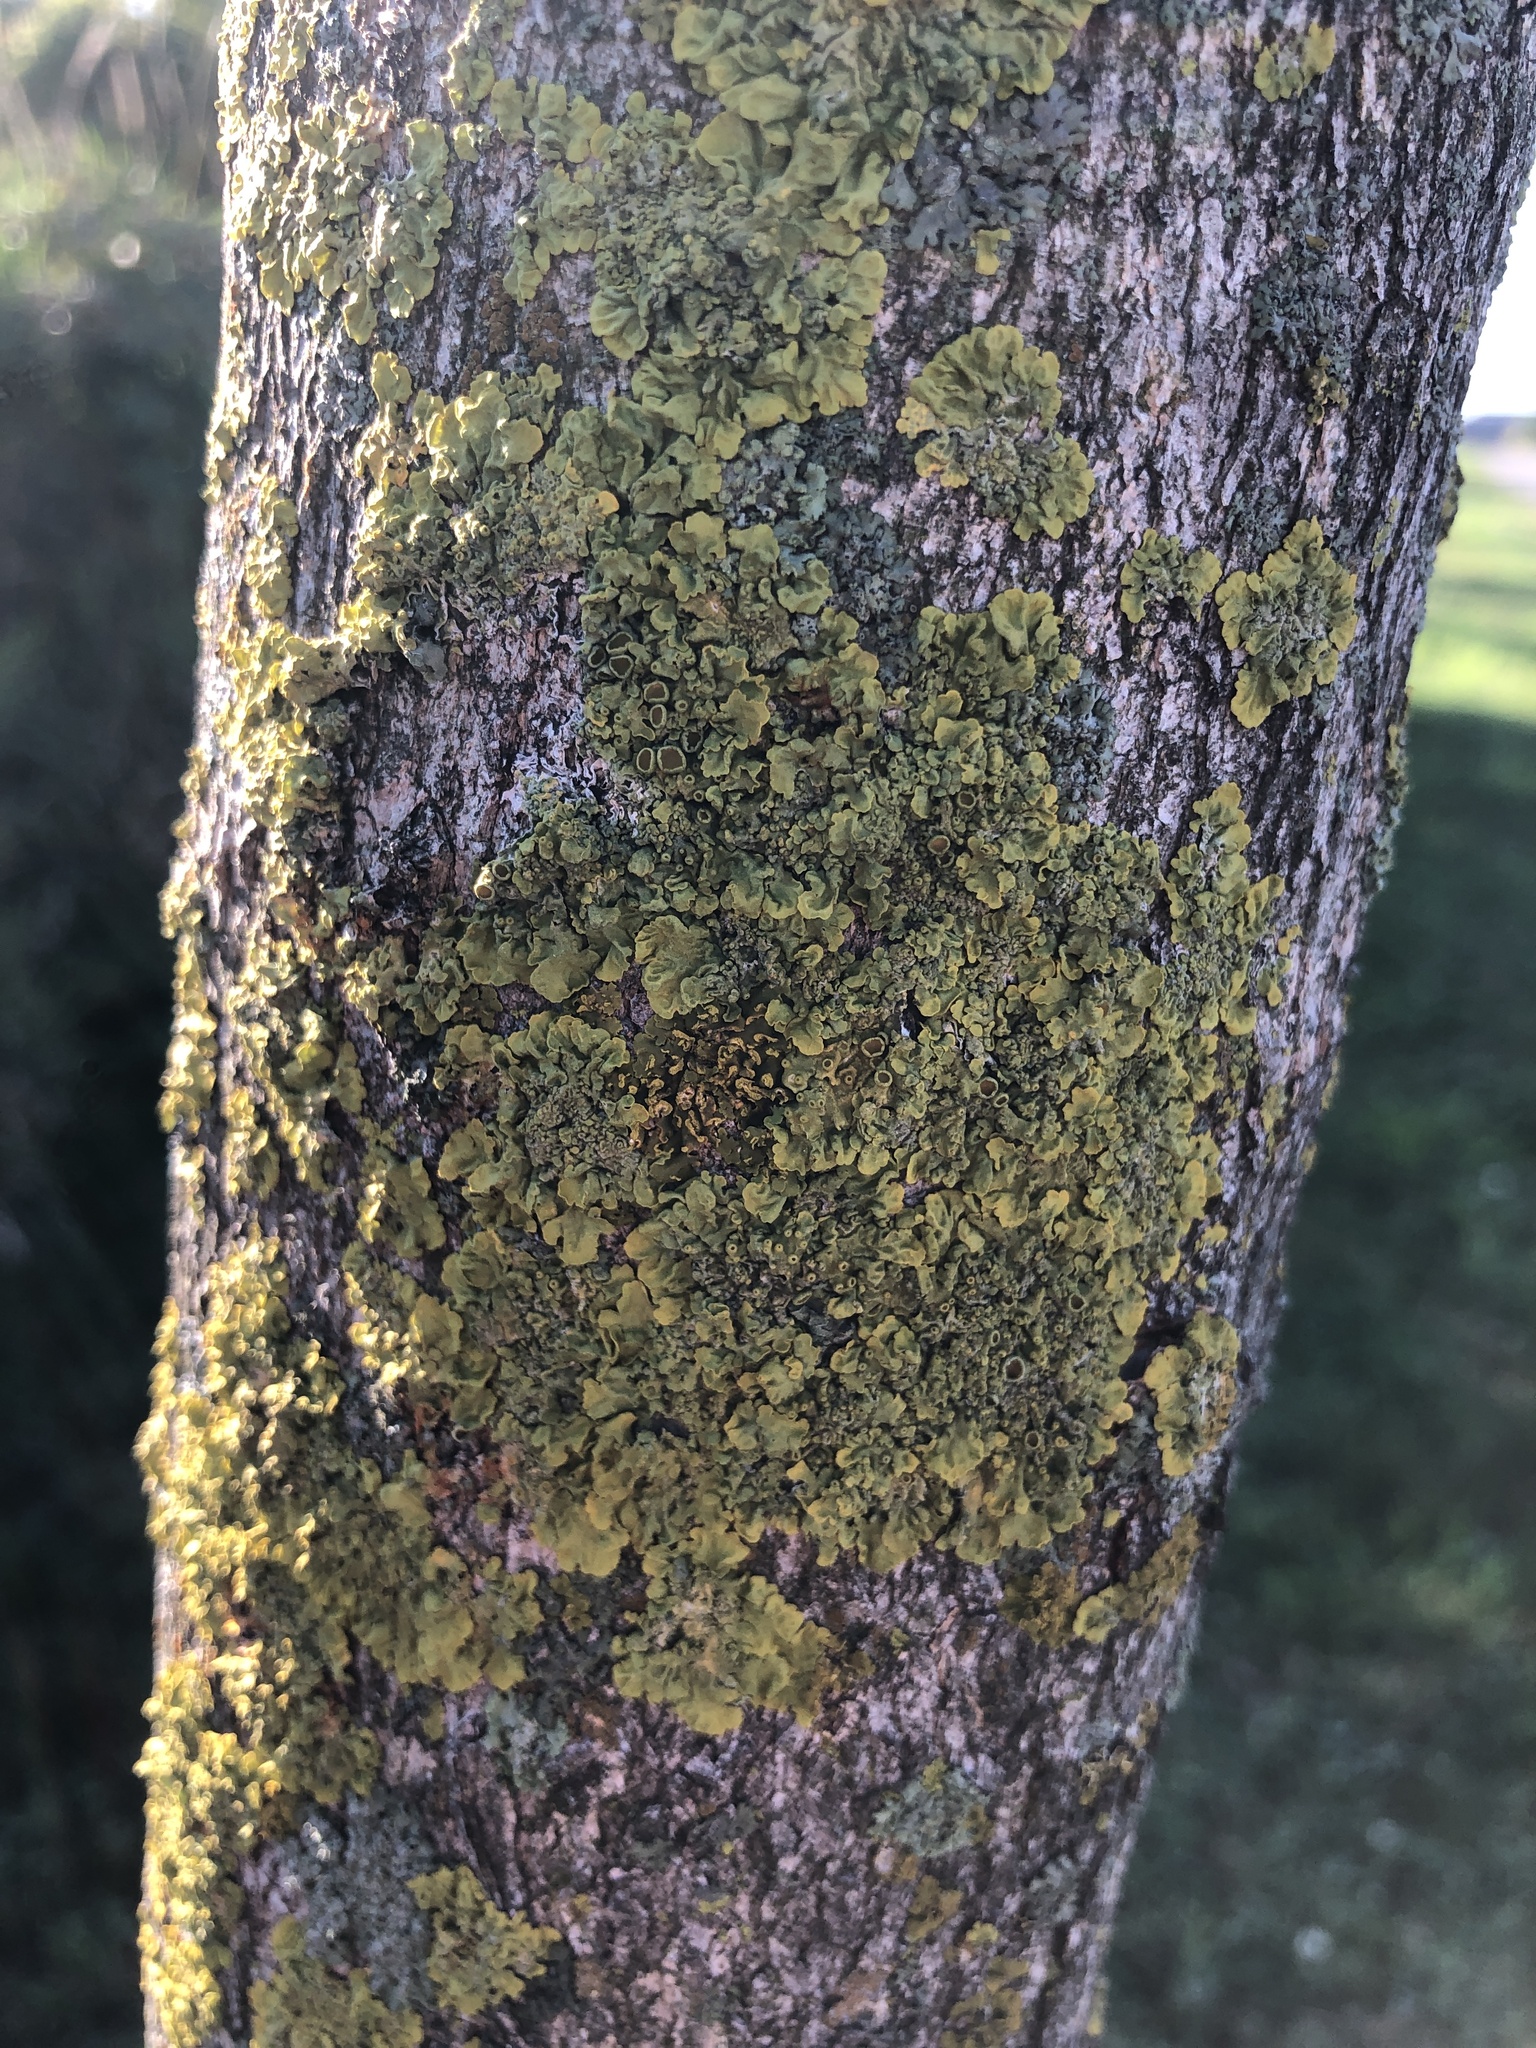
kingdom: Fungi
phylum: Ascomycota
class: Lecanoromycetes
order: Teloschistales
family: Teloschistaceae
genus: Xanthoria
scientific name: Xanthoria parietina
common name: Common orange lichen
